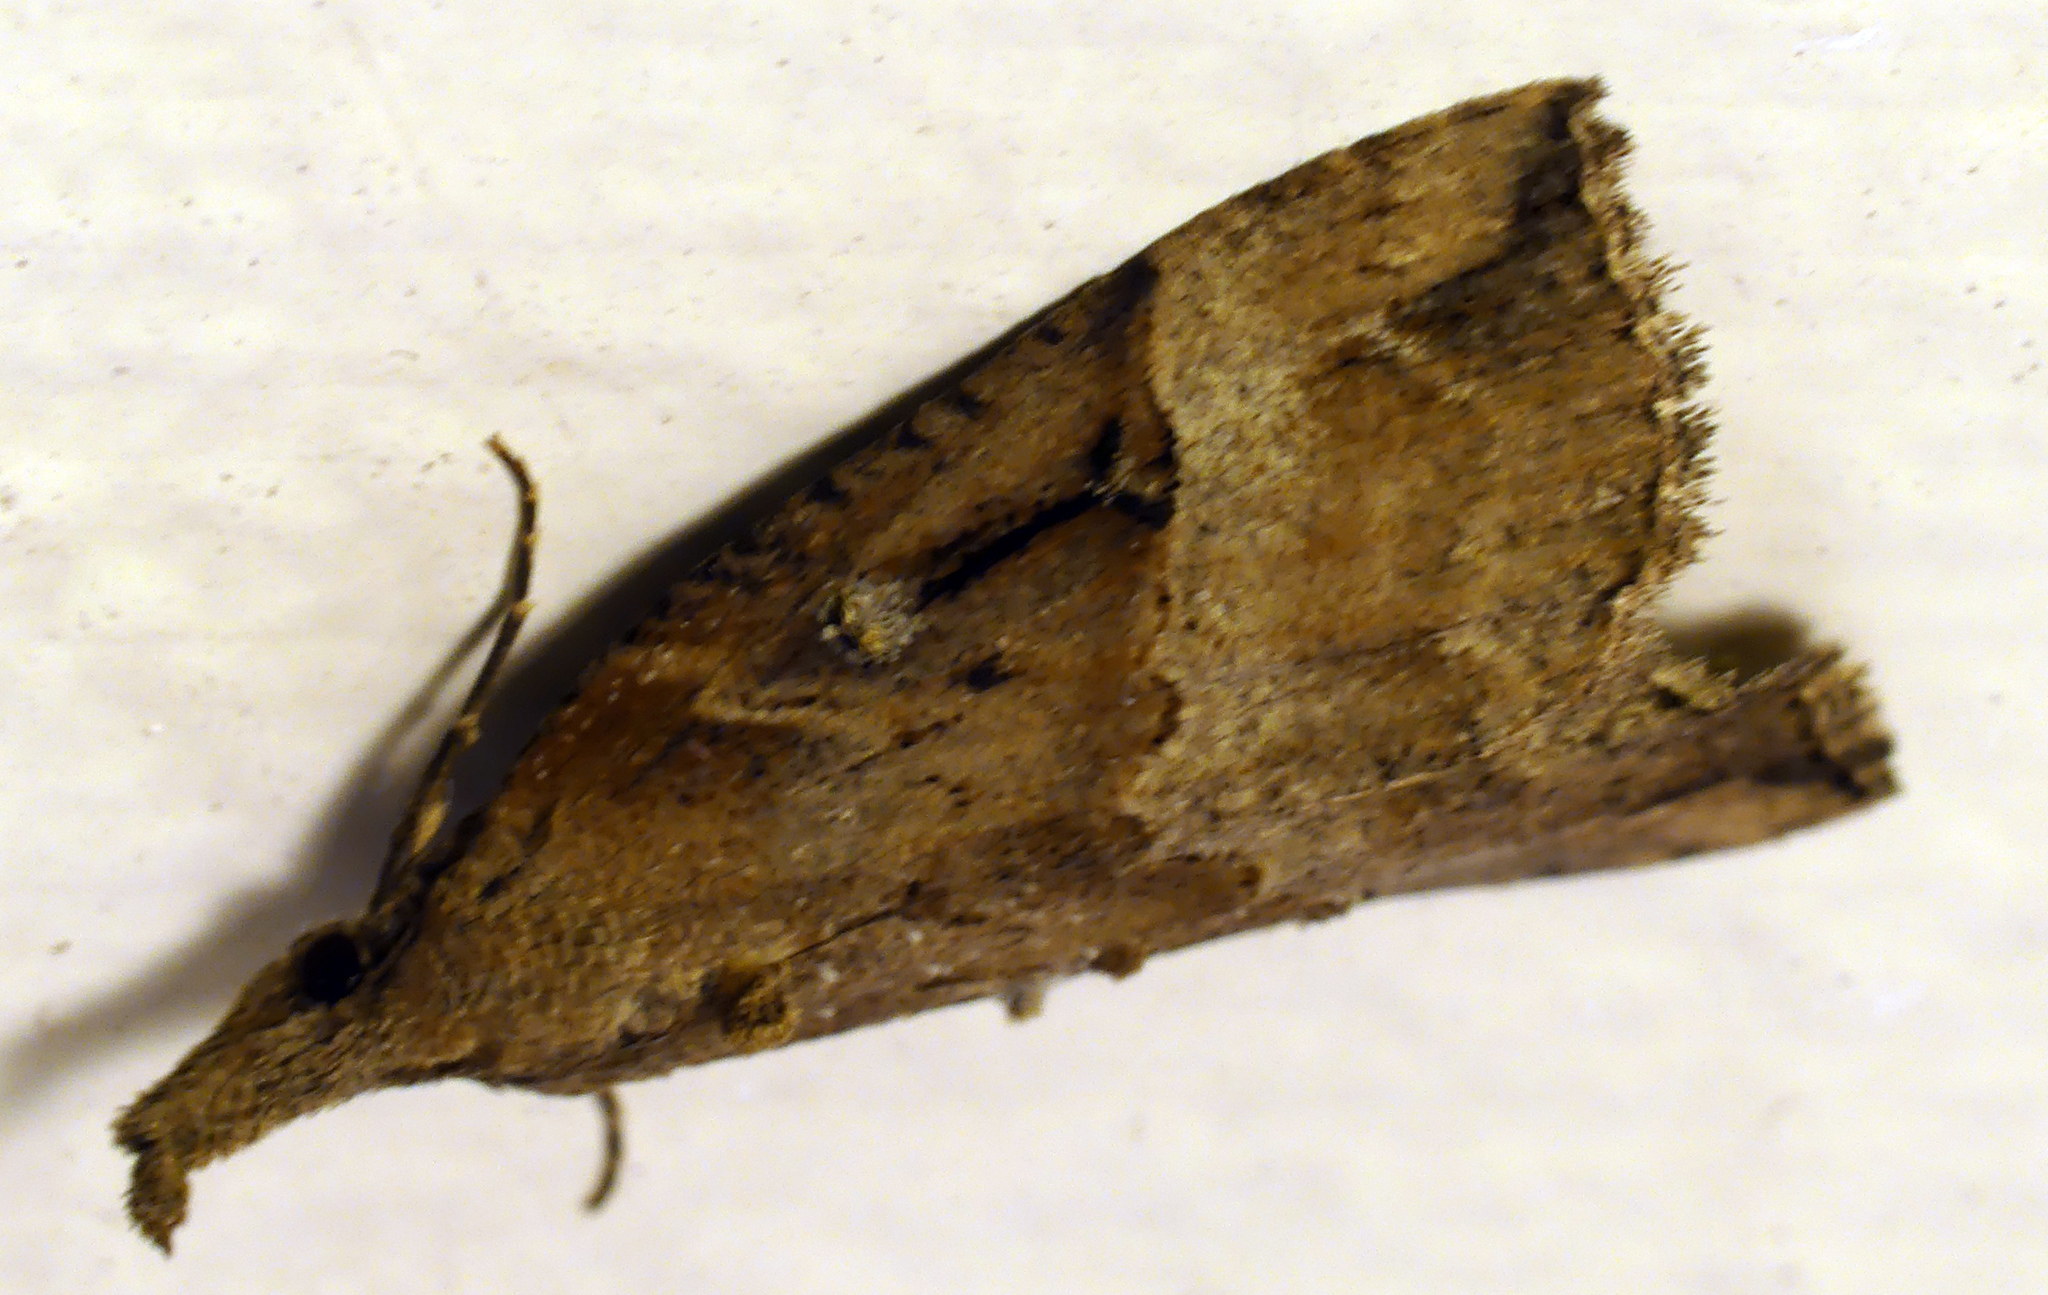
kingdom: Animalia
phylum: Arthropoda
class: Insecta
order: Lepidoptera
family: Erebidae
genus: Hypena
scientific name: Hypena rostralis
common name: Buttoned snout
